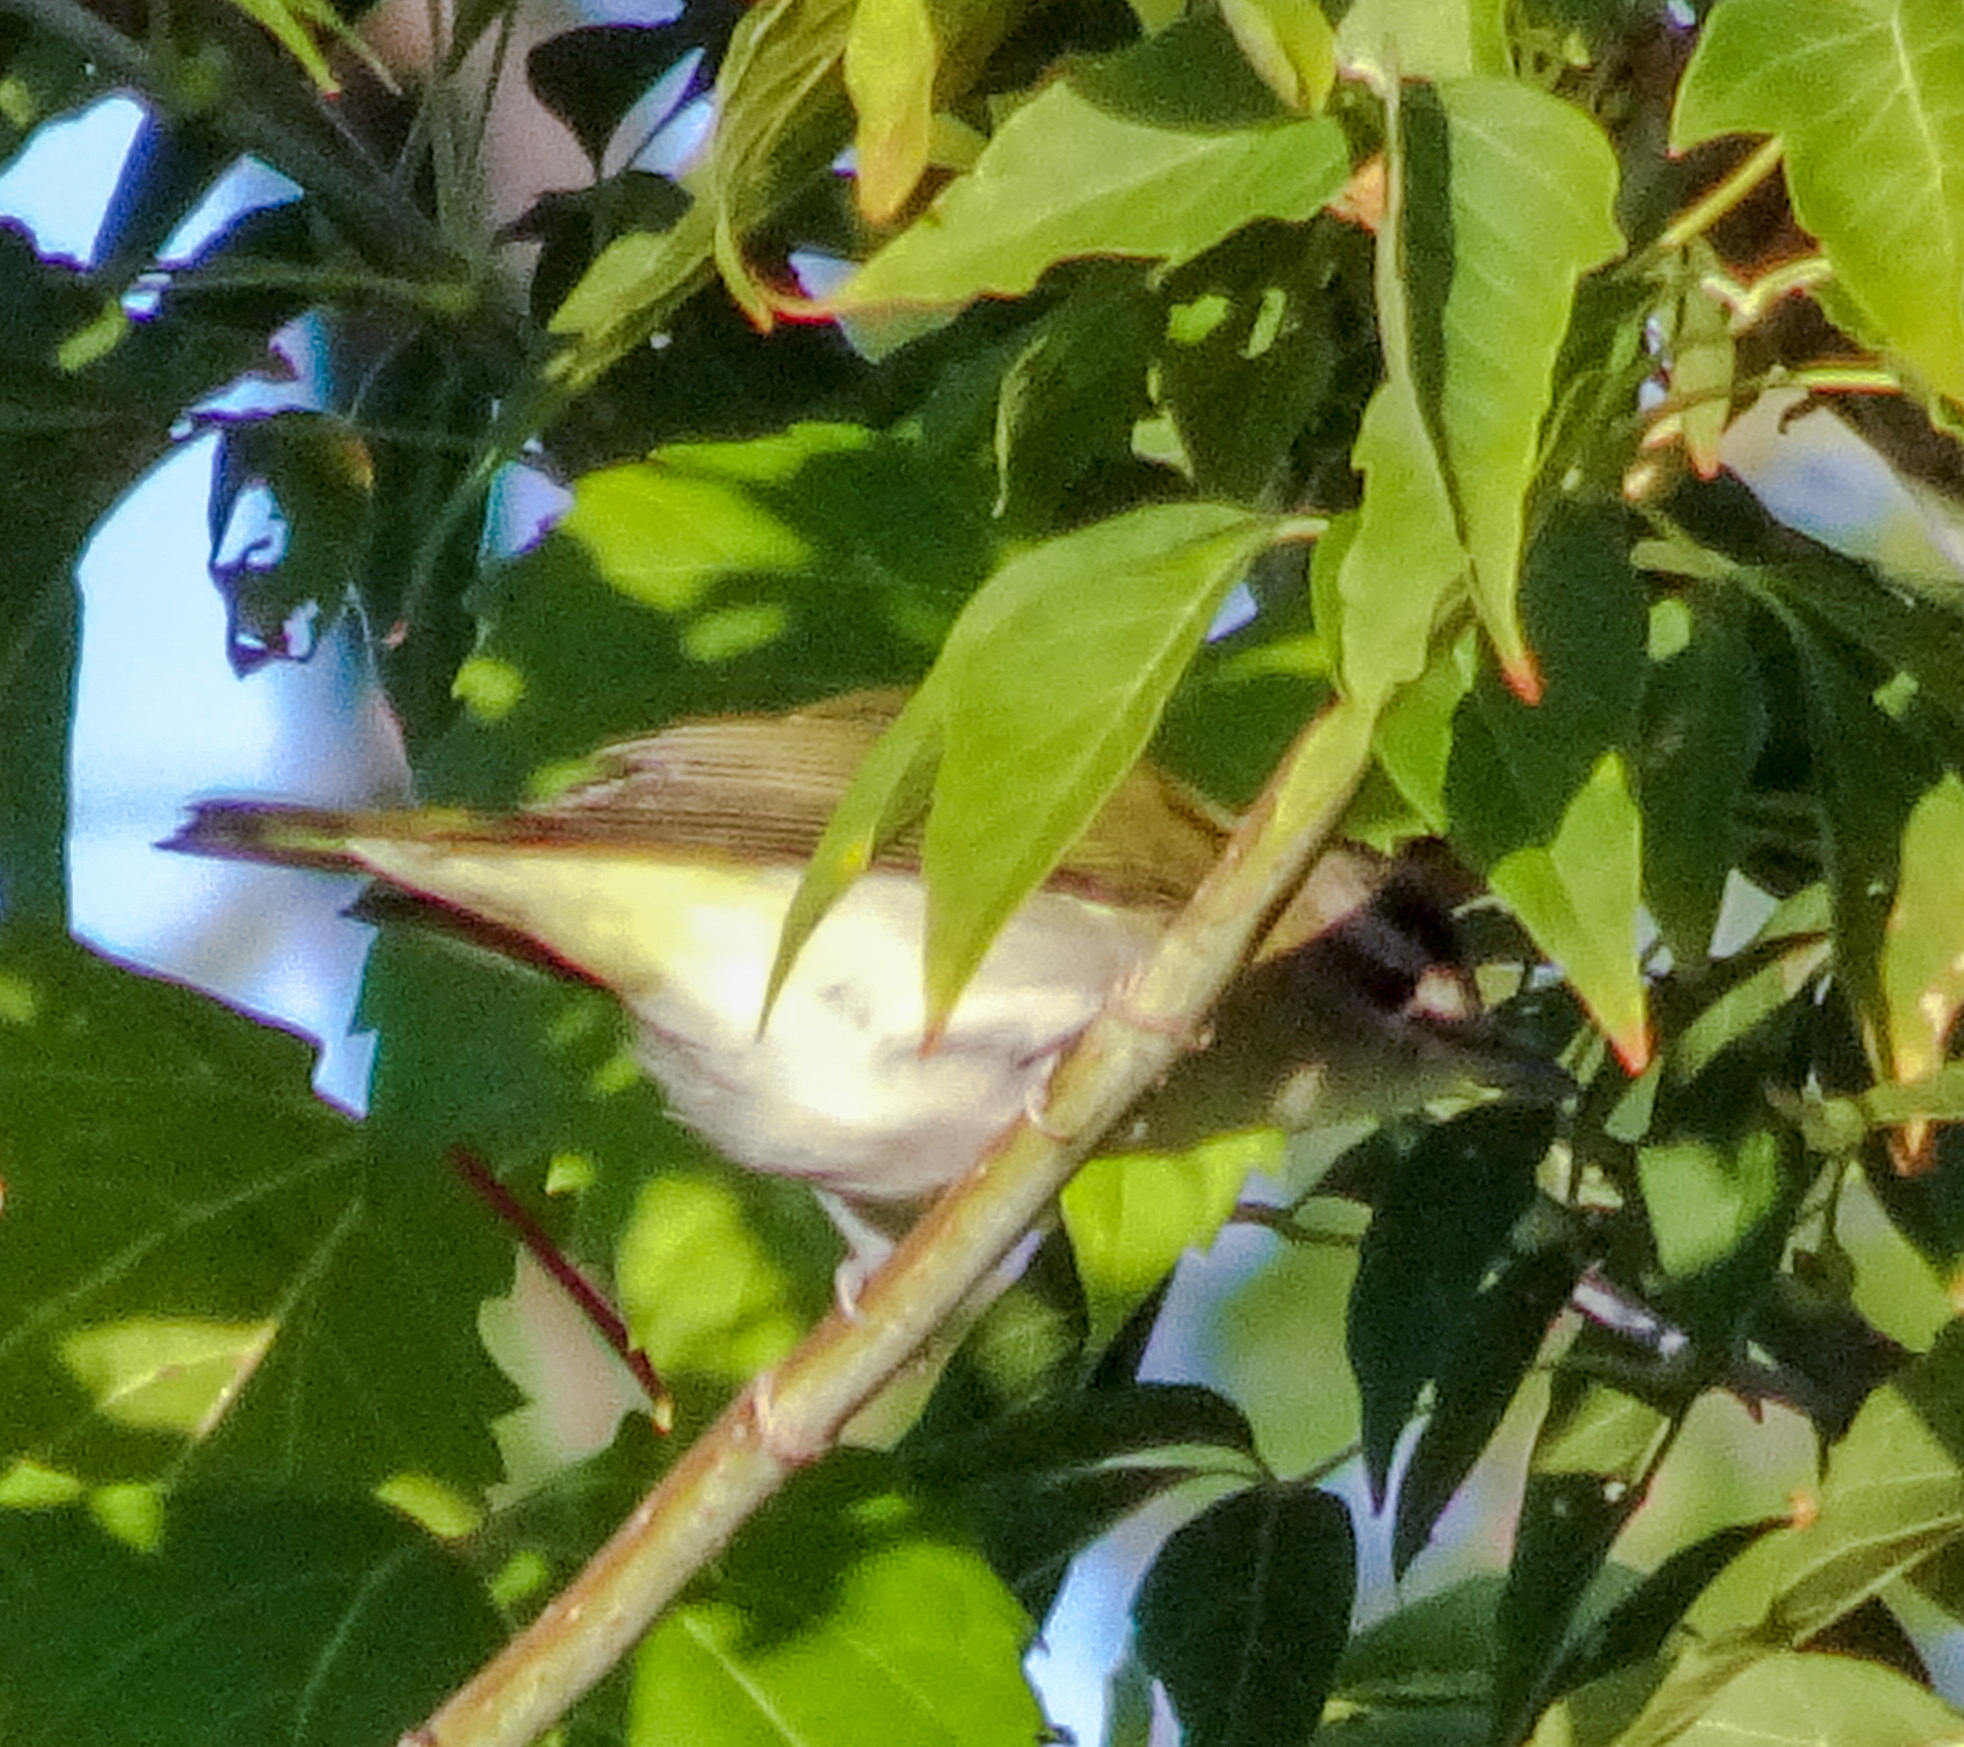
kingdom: Animalia
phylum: Chordata
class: Aves
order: Passeriformes
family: Vireonidae
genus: Vireo
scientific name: Vireo olivaceus
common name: Red-eyed vireo
